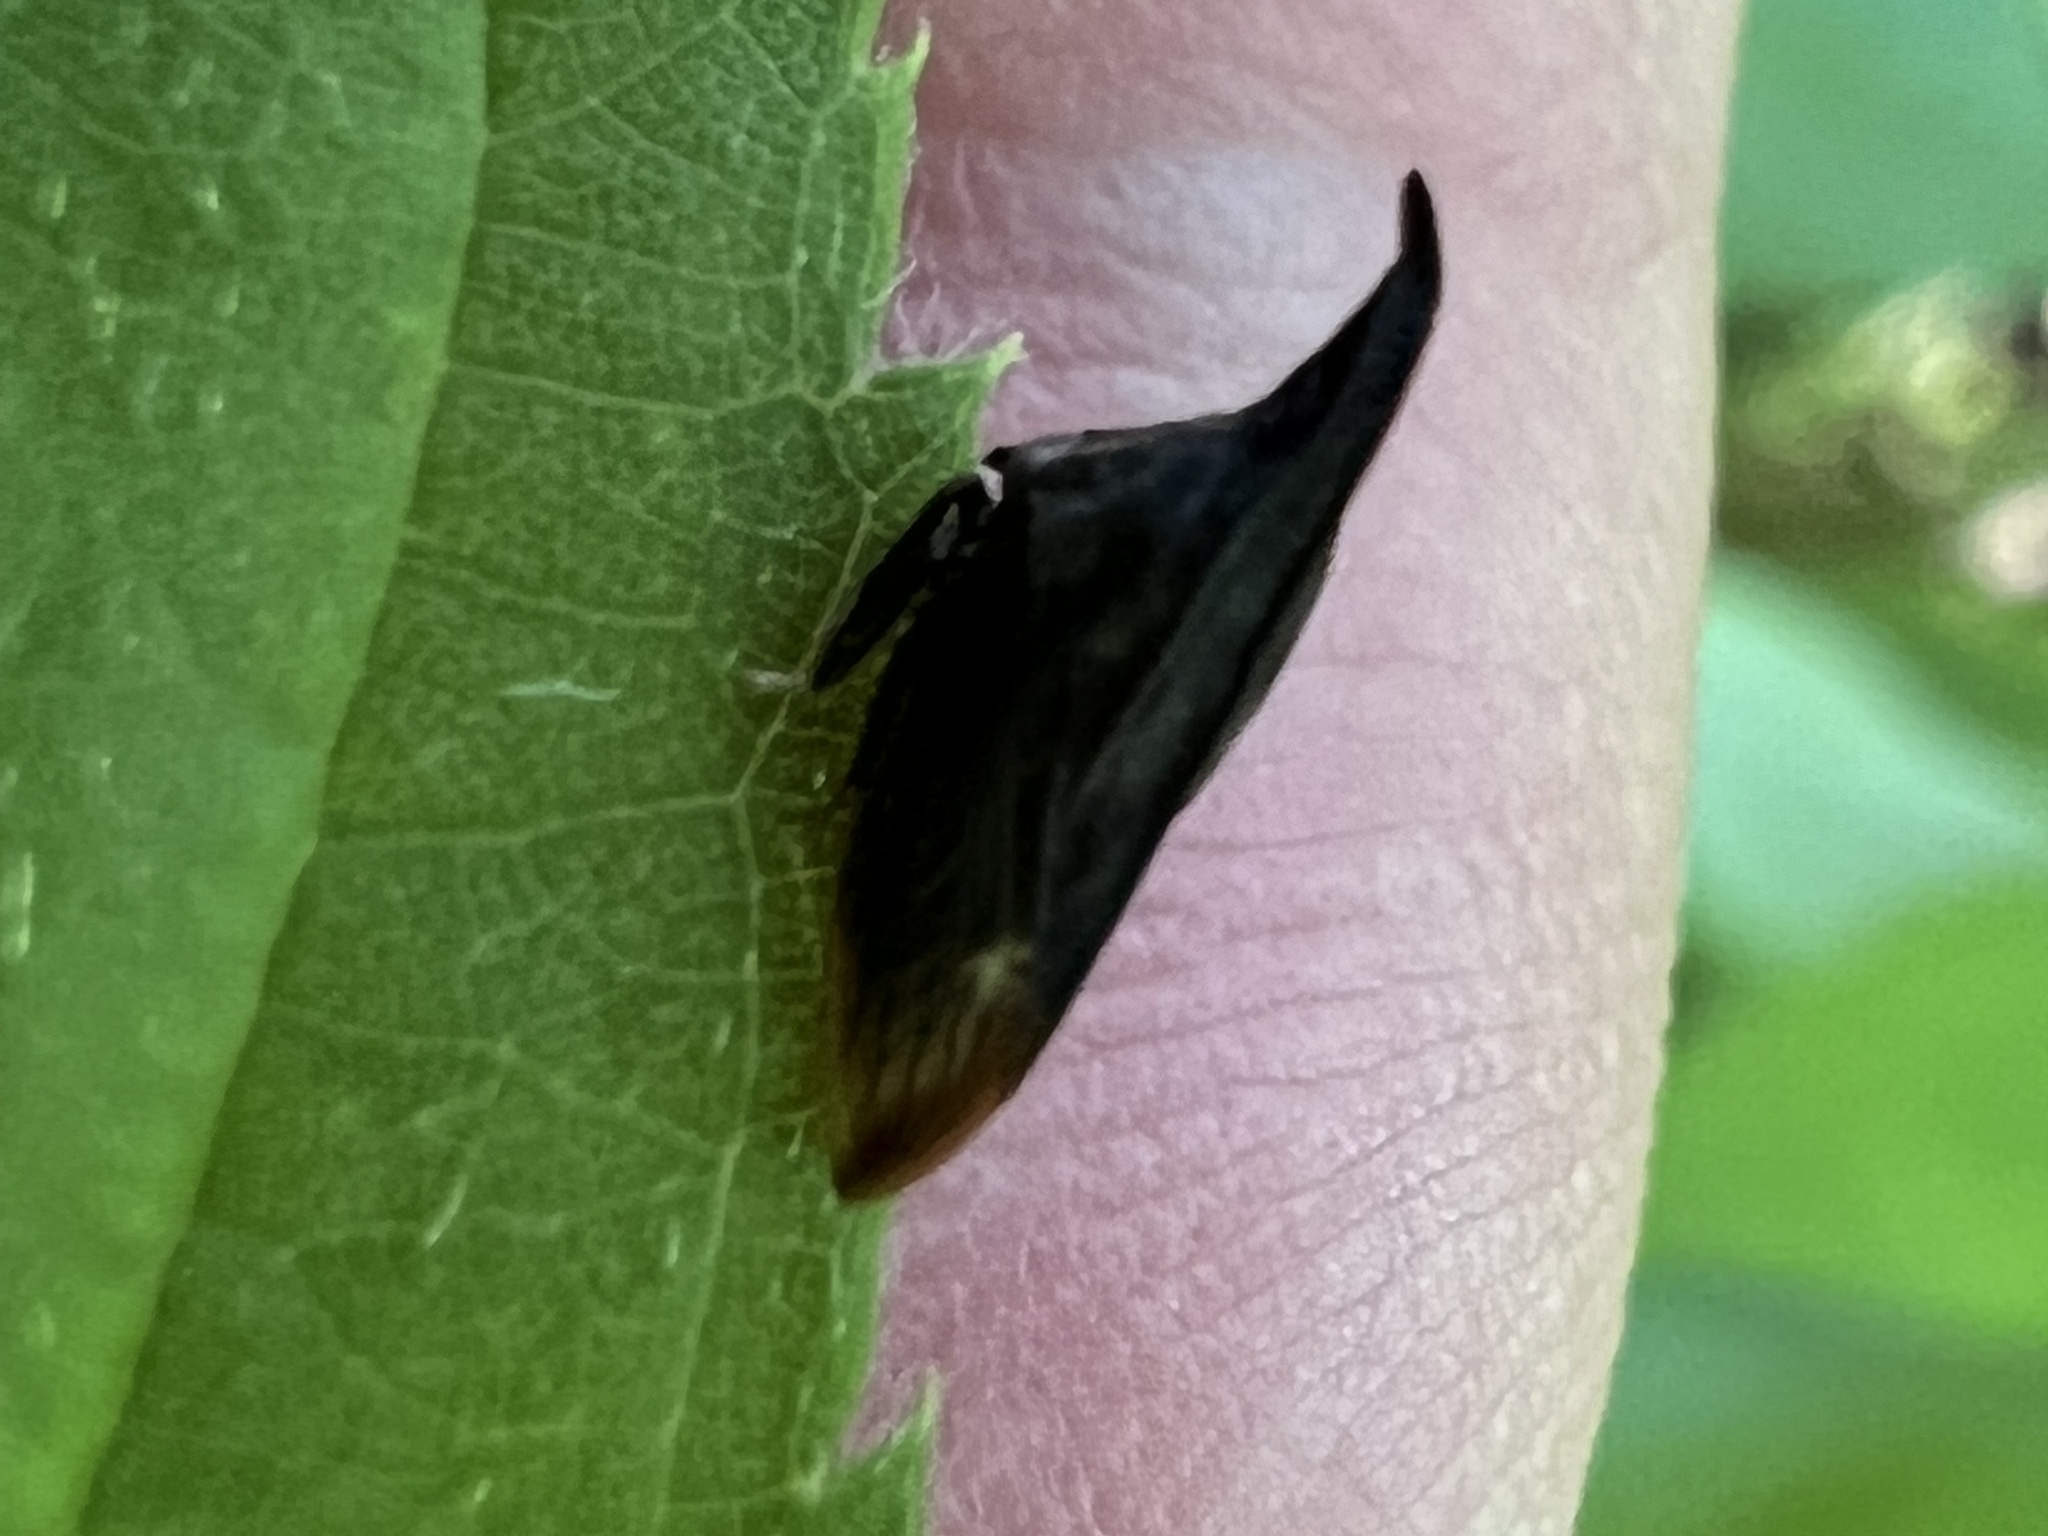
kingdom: Animalia
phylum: Arthropoda
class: Insecta
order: Hemiptera
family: Membracidae
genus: Enchenopa
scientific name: Enchenopa latipes
